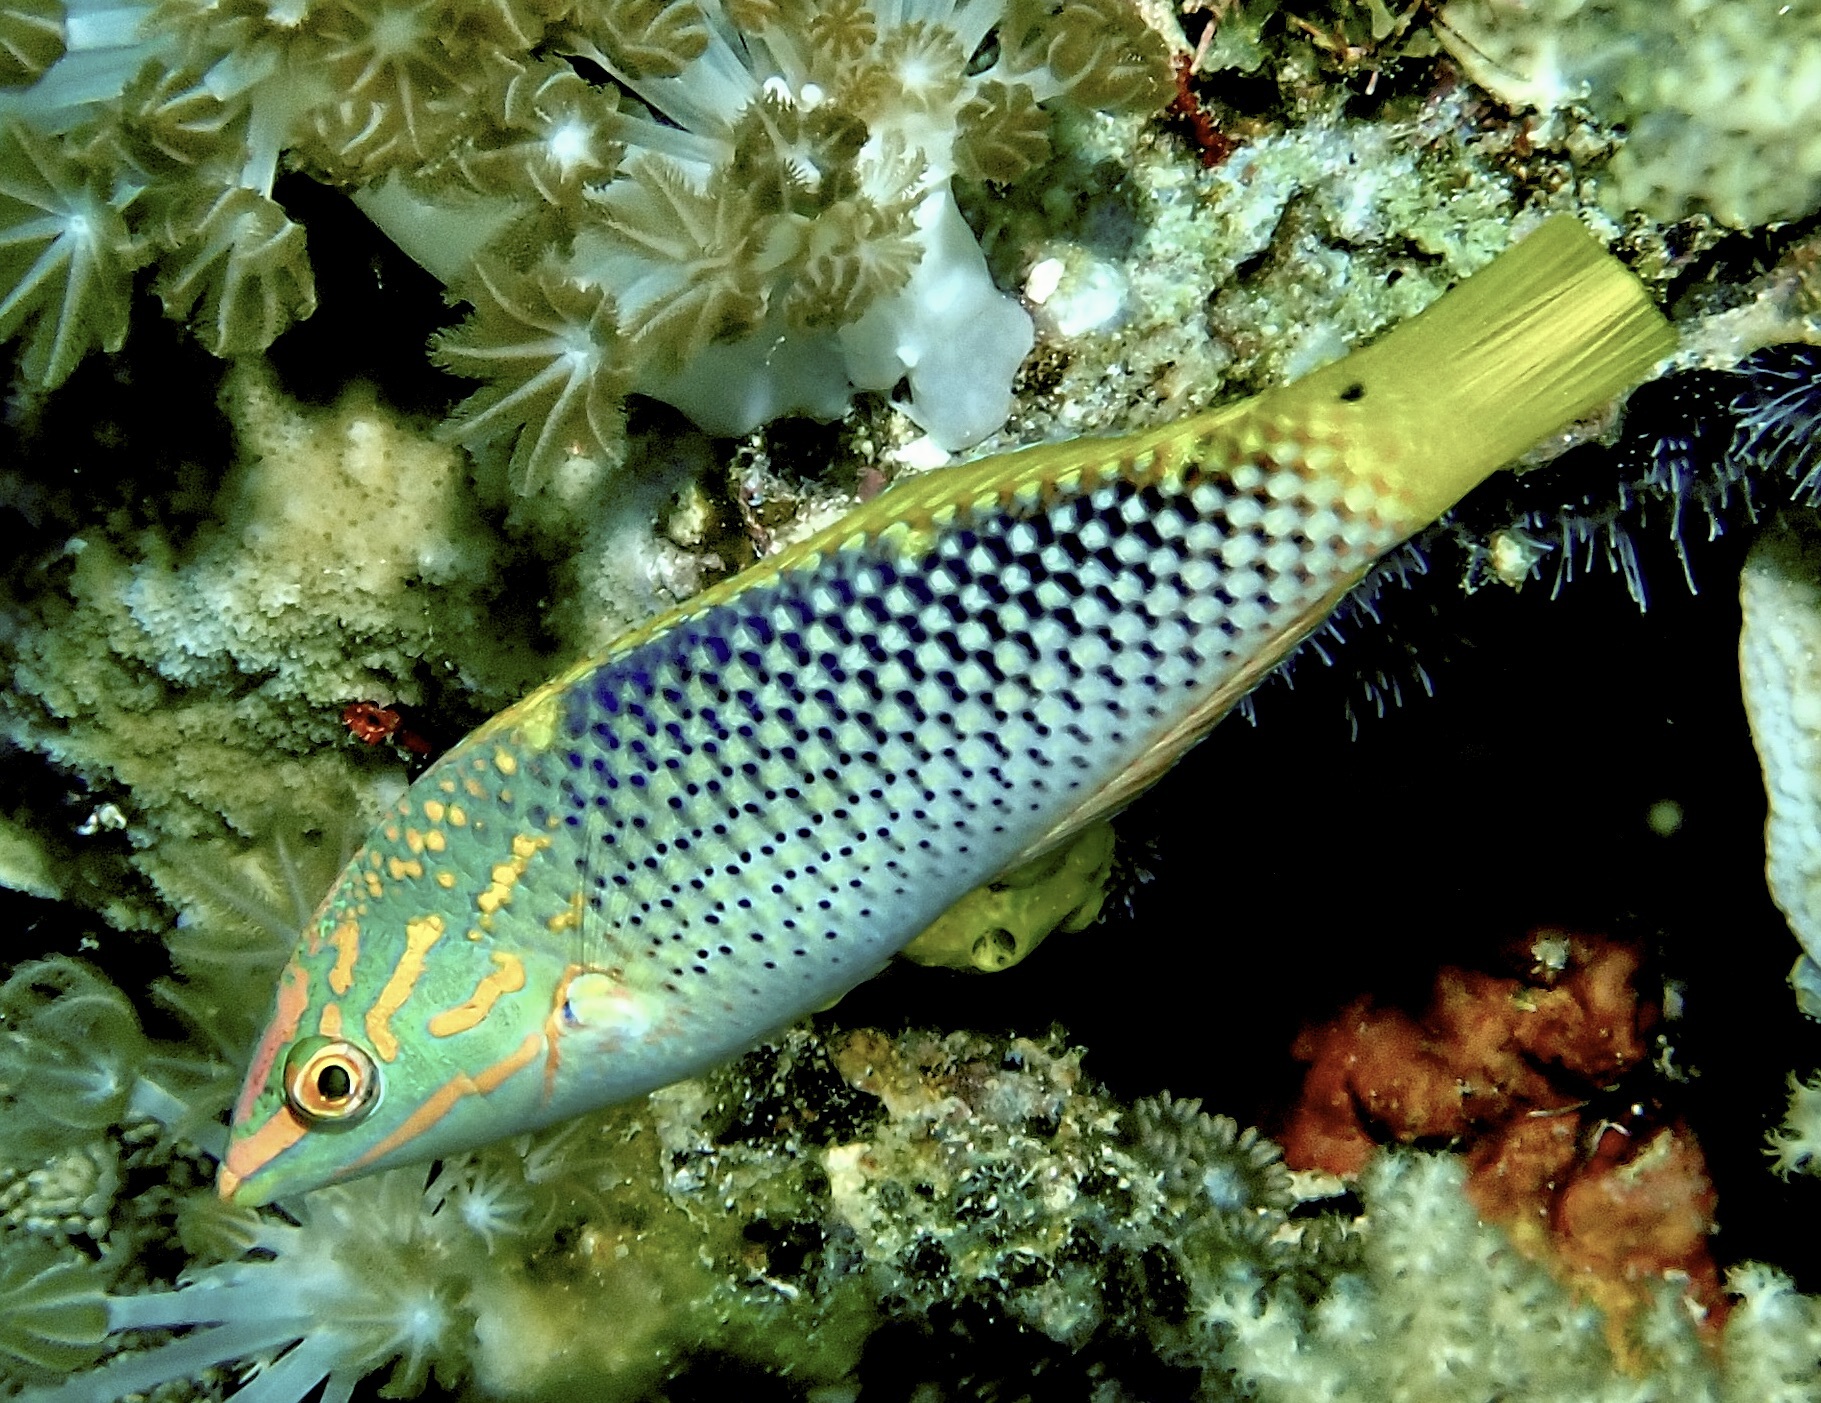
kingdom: Animalia
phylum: Chordata
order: Perciformes
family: Labridae
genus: Halichoeres
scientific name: Halichoeres hortulanus
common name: Checkerboard wrasse
